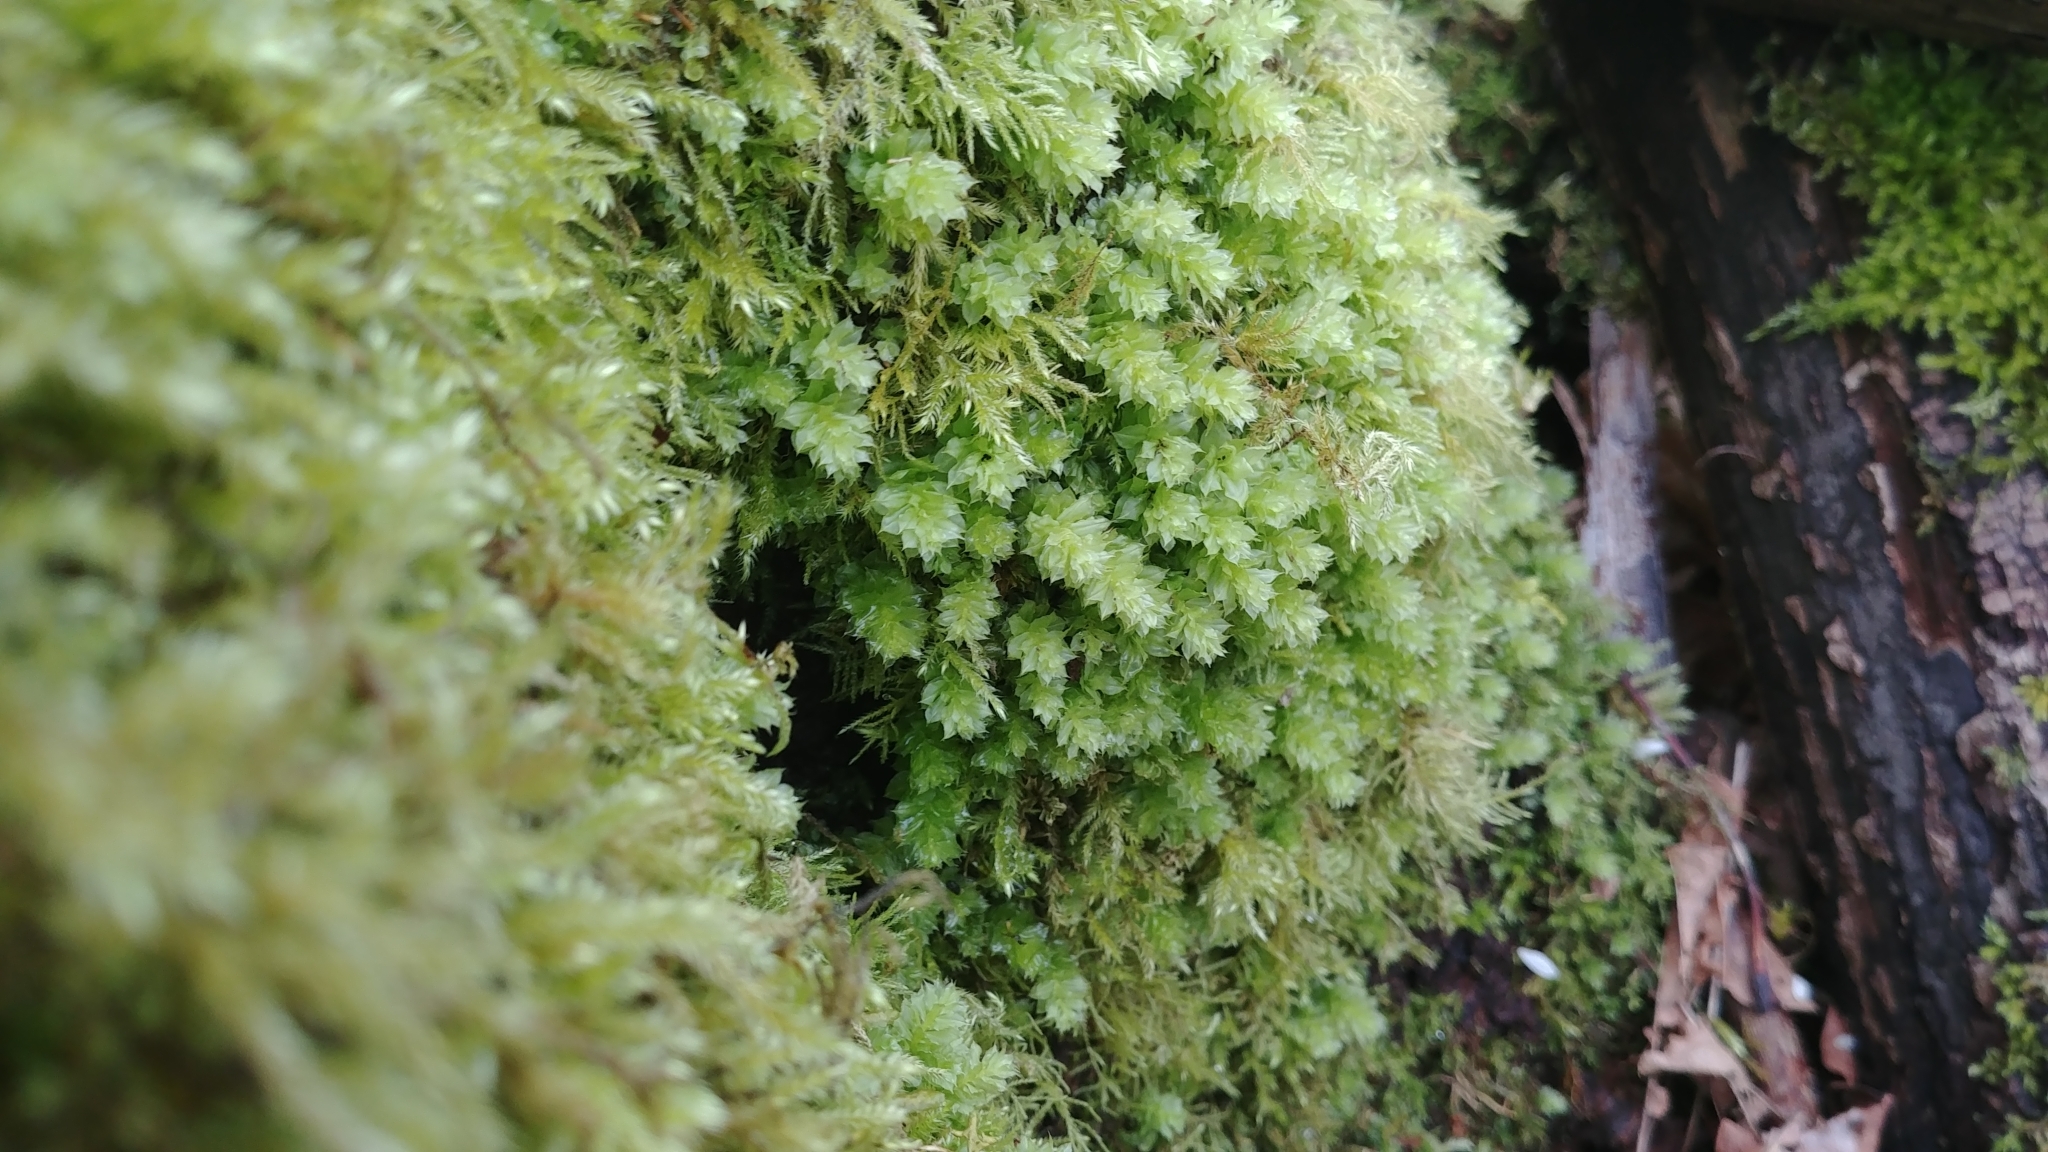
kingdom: Plantae
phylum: Bryophyta
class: Bryopsida
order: Bryales
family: Mniaceae
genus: Plagiomnium
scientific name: Plagiomnium venustum
